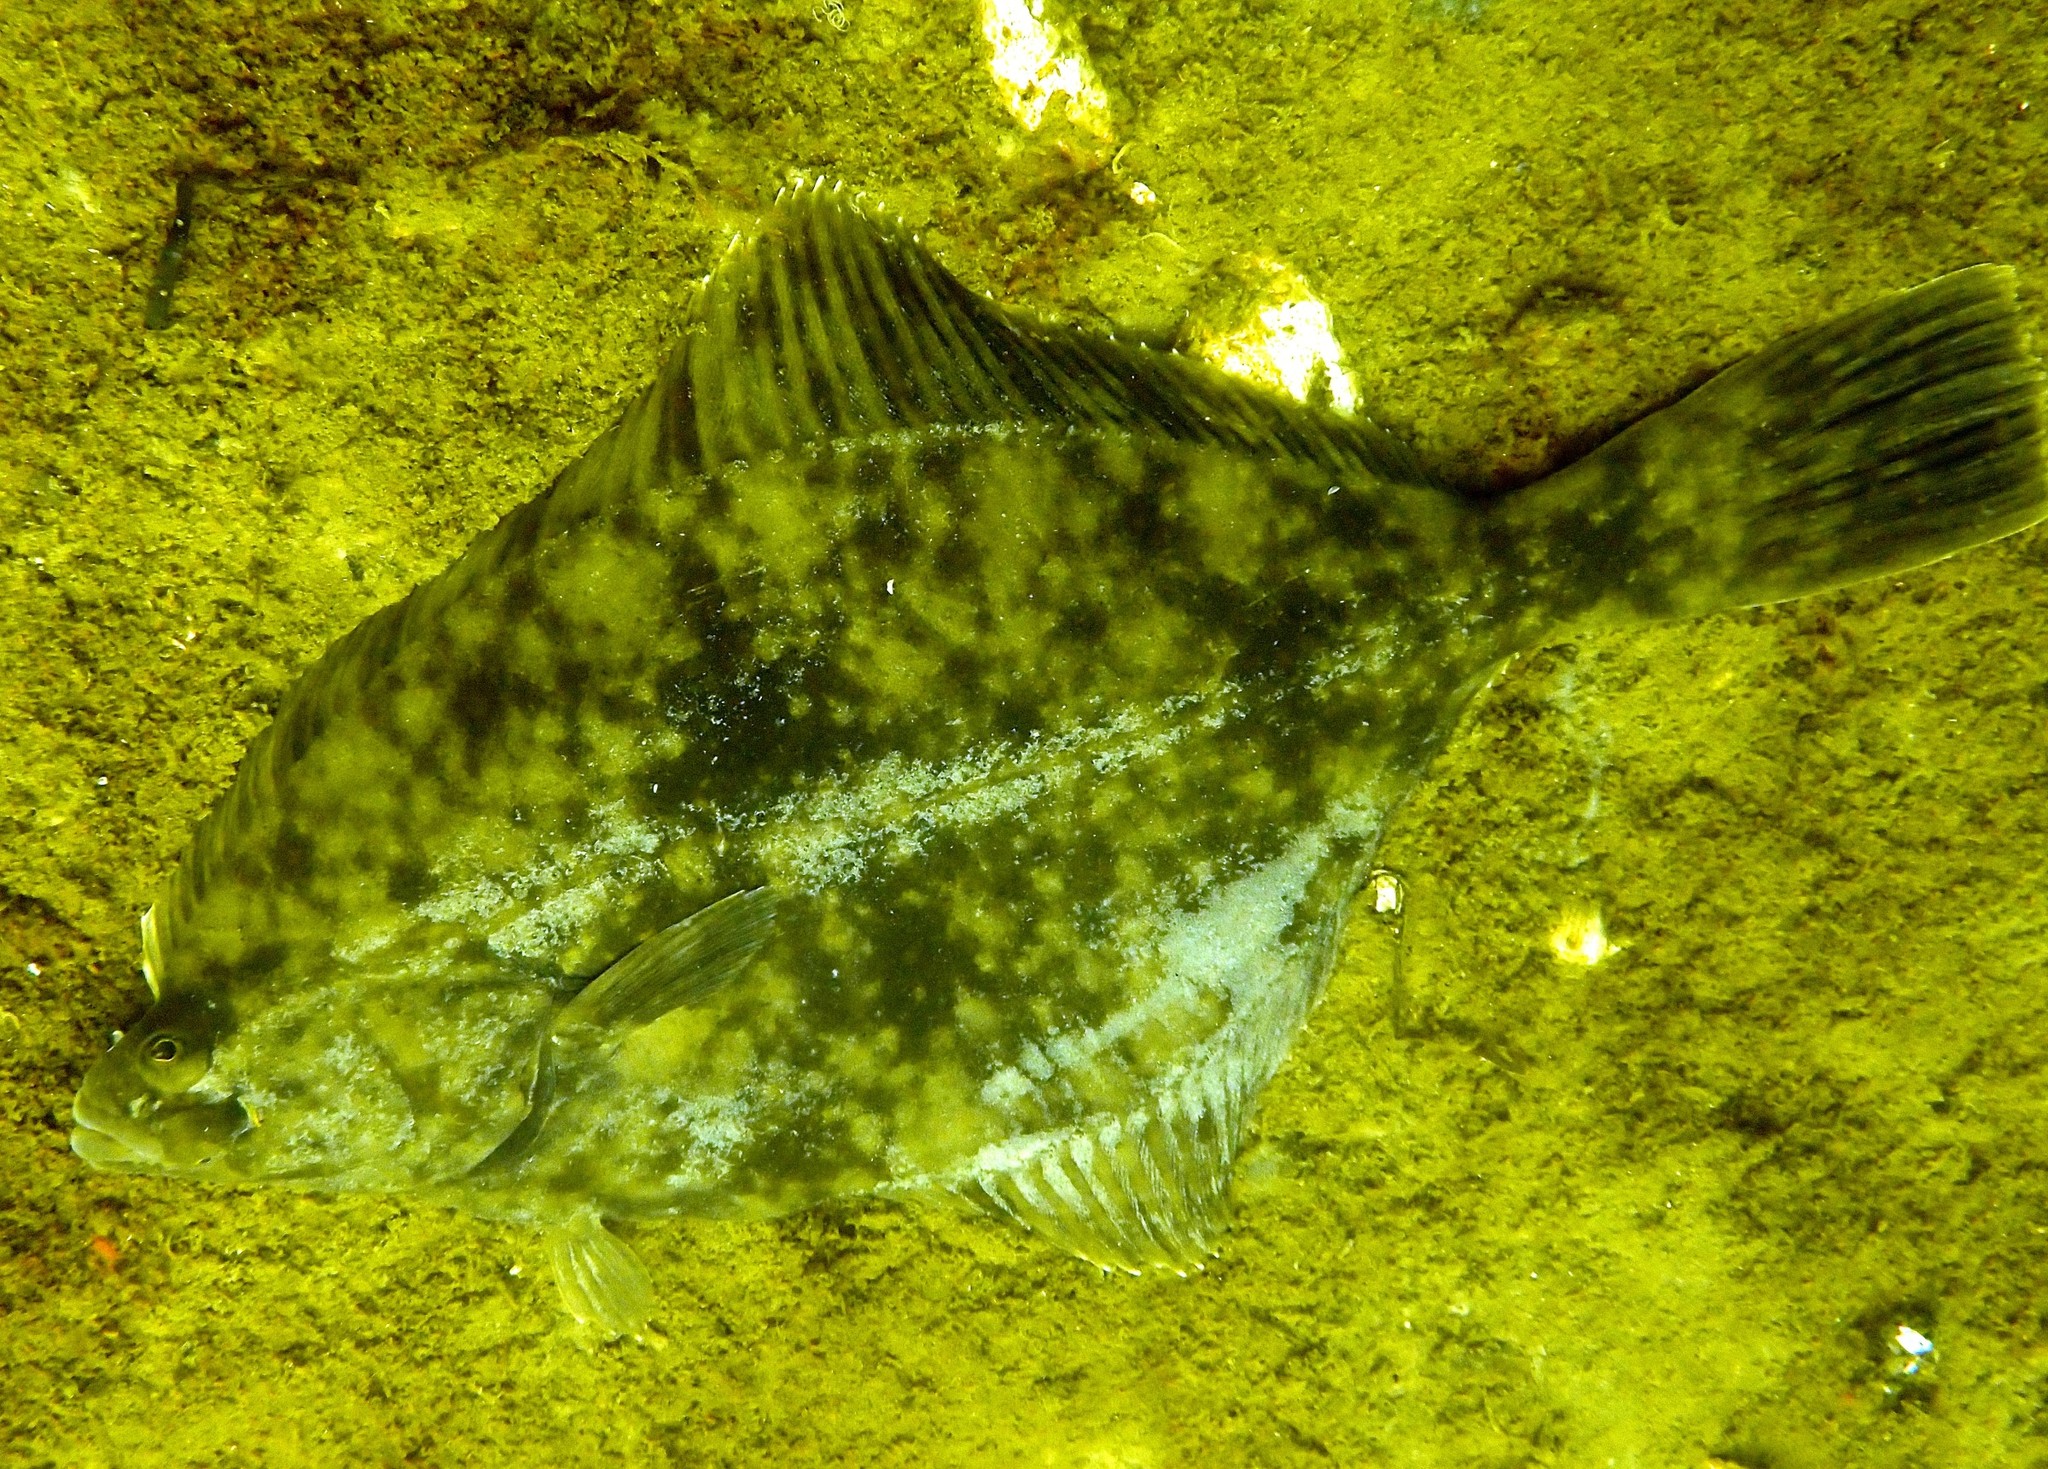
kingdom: Animalia
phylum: Chordata
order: Pleuronectiformes
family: Pleuronectidae
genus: Platichthys
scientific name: Platichthys flesus
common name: European flounder
